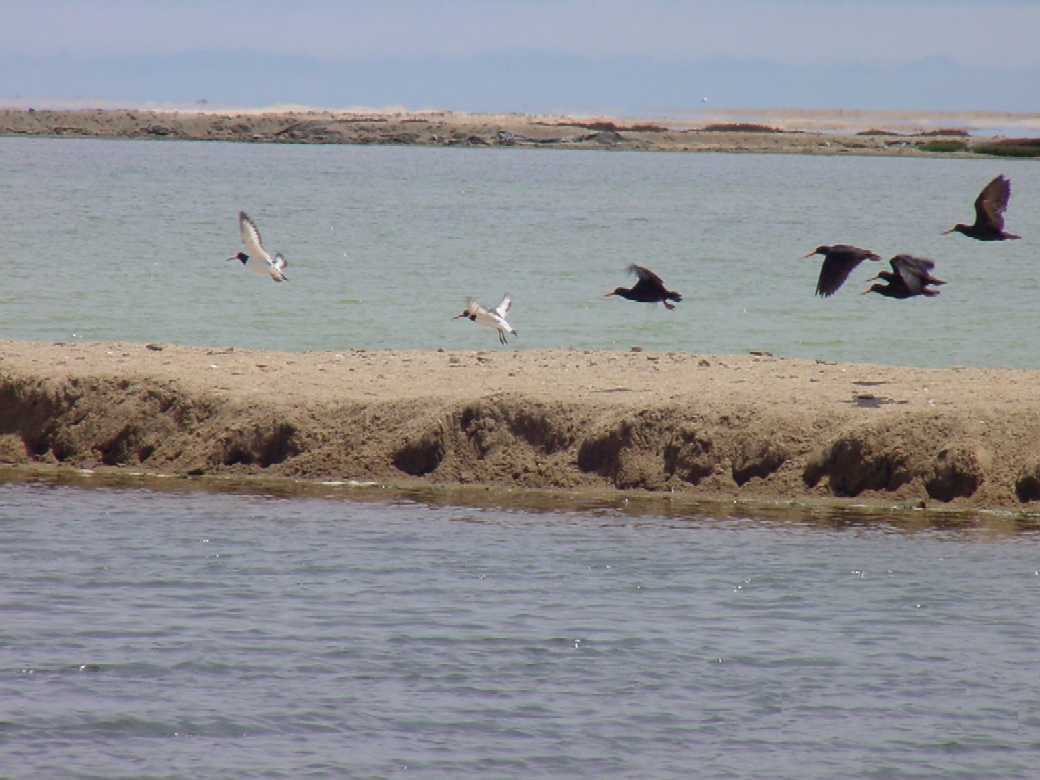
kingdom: Animalia
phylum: Chordata
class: Aves
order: Charadriiformes
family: Haematopodidae
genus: Haematopus
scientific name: Haematopus ostralegus
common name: Eurasian oystercatcher
